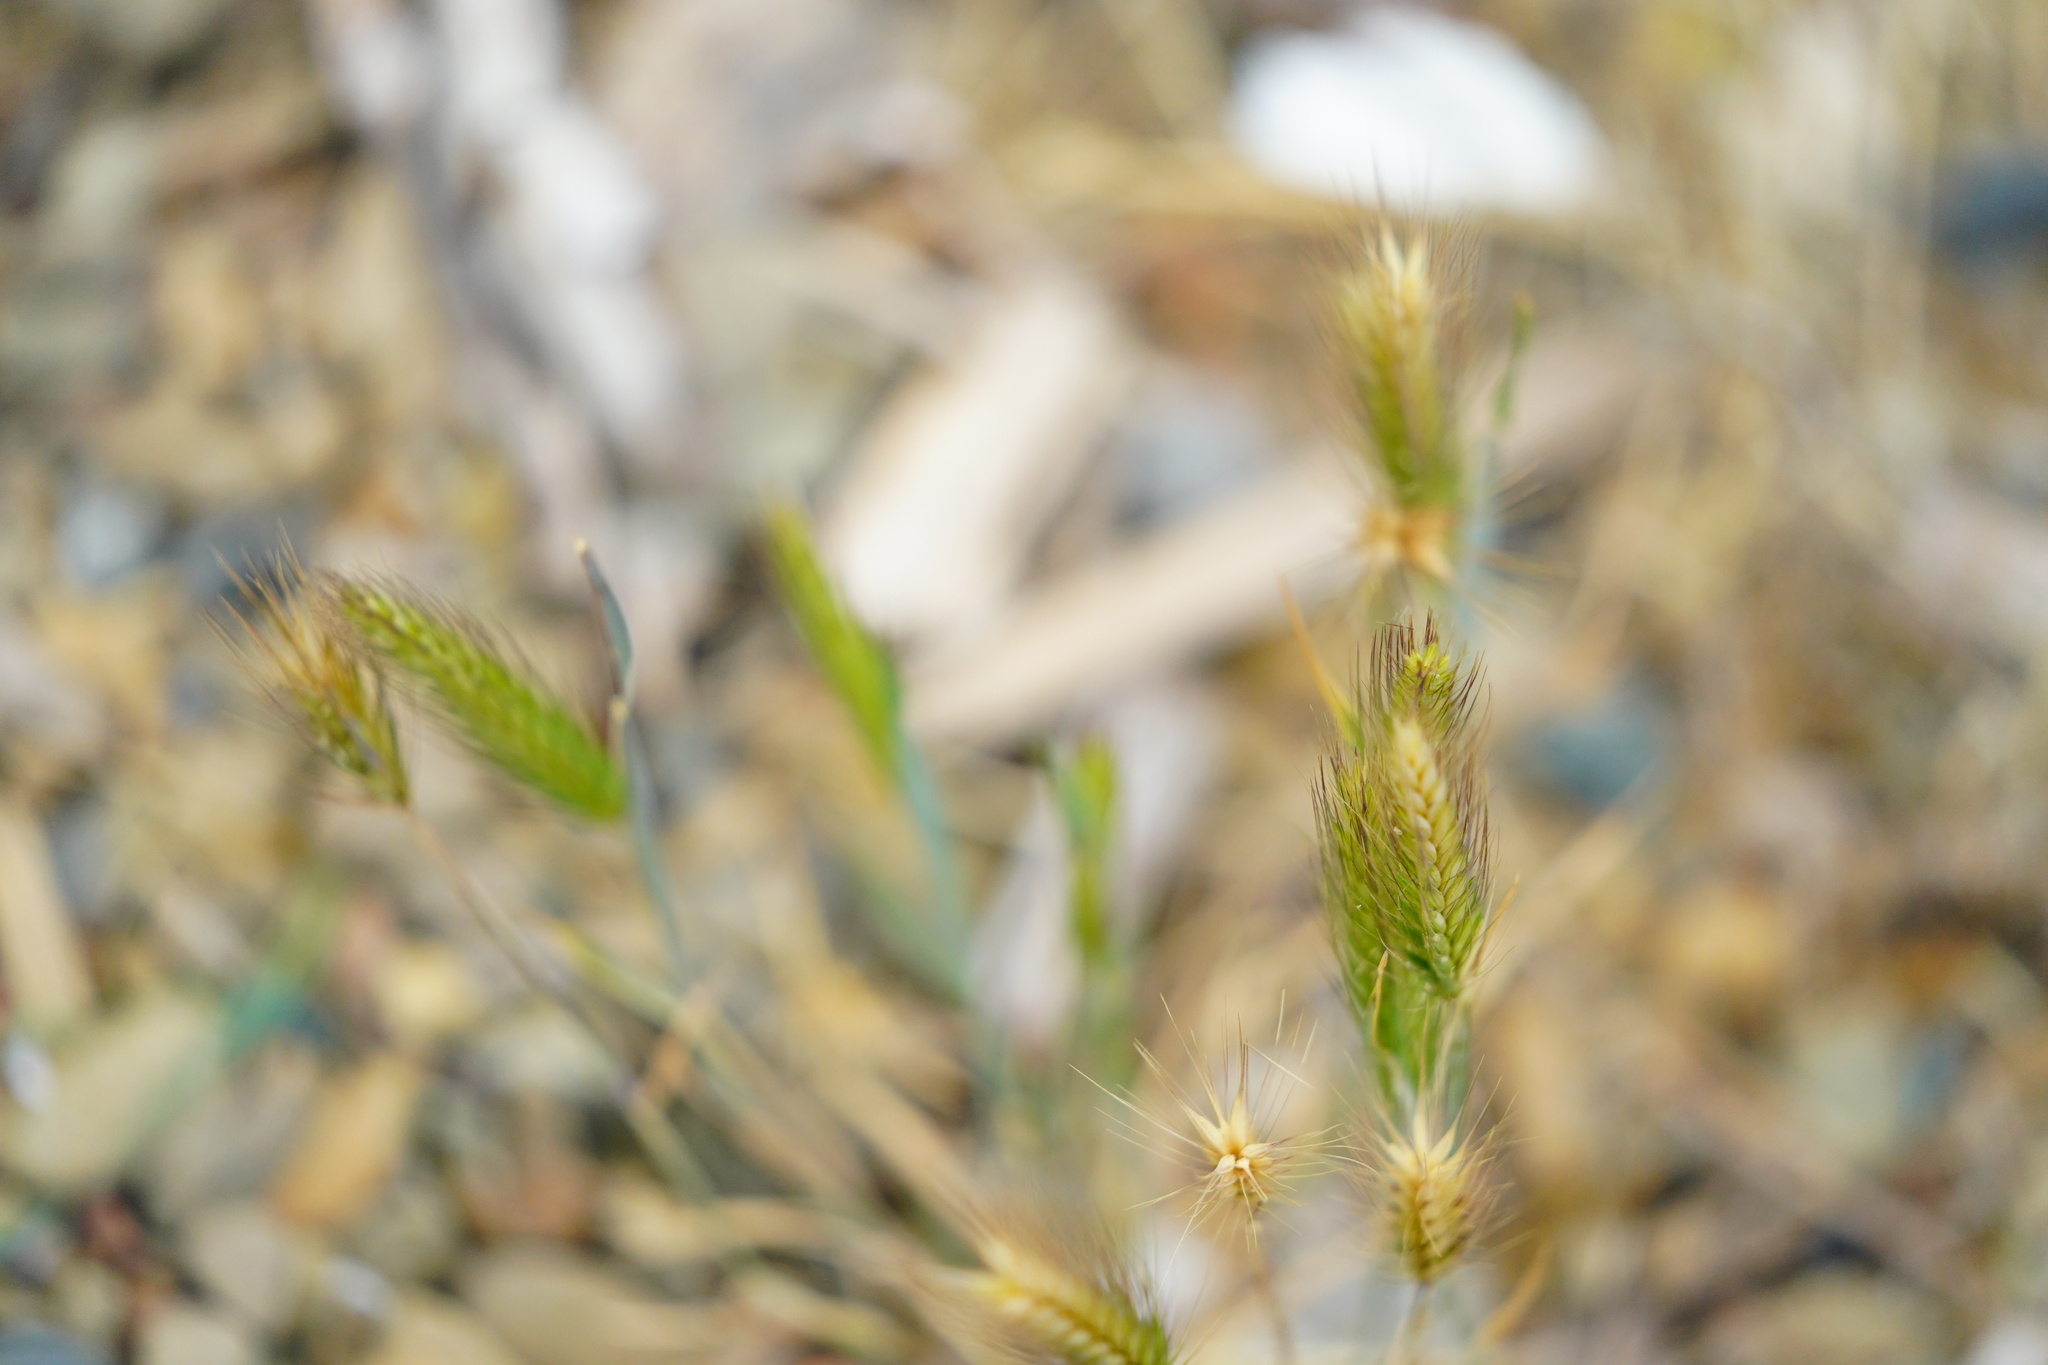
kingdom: Plantae
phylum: Tracheophyta
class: Liliopsida
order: Poales
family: Poaceae
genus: Hordeum
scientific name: Hordeum murinum
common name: Wall barley
